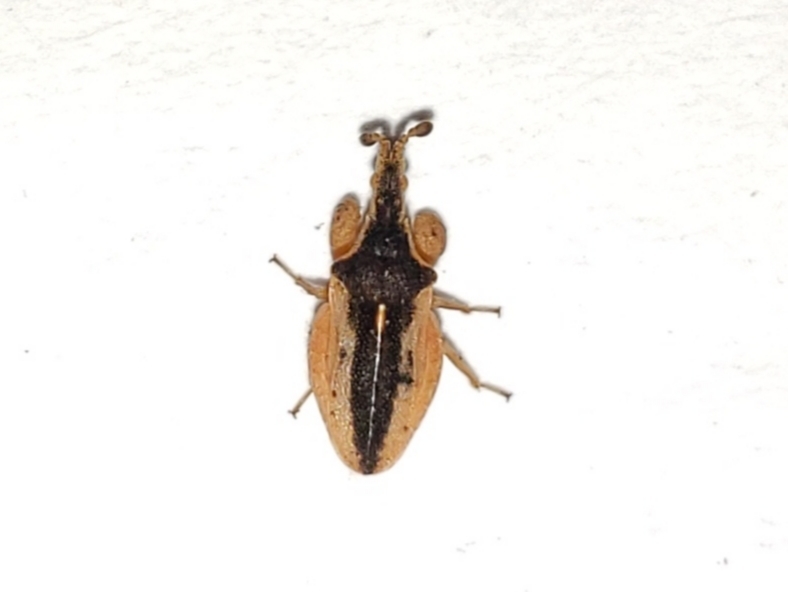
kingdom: Animalia
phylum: Arthropoda
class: Insecta
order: Hemiptera
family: Reduviidae
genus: Lophoscutus
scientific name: Lophoscutus prehensilis
